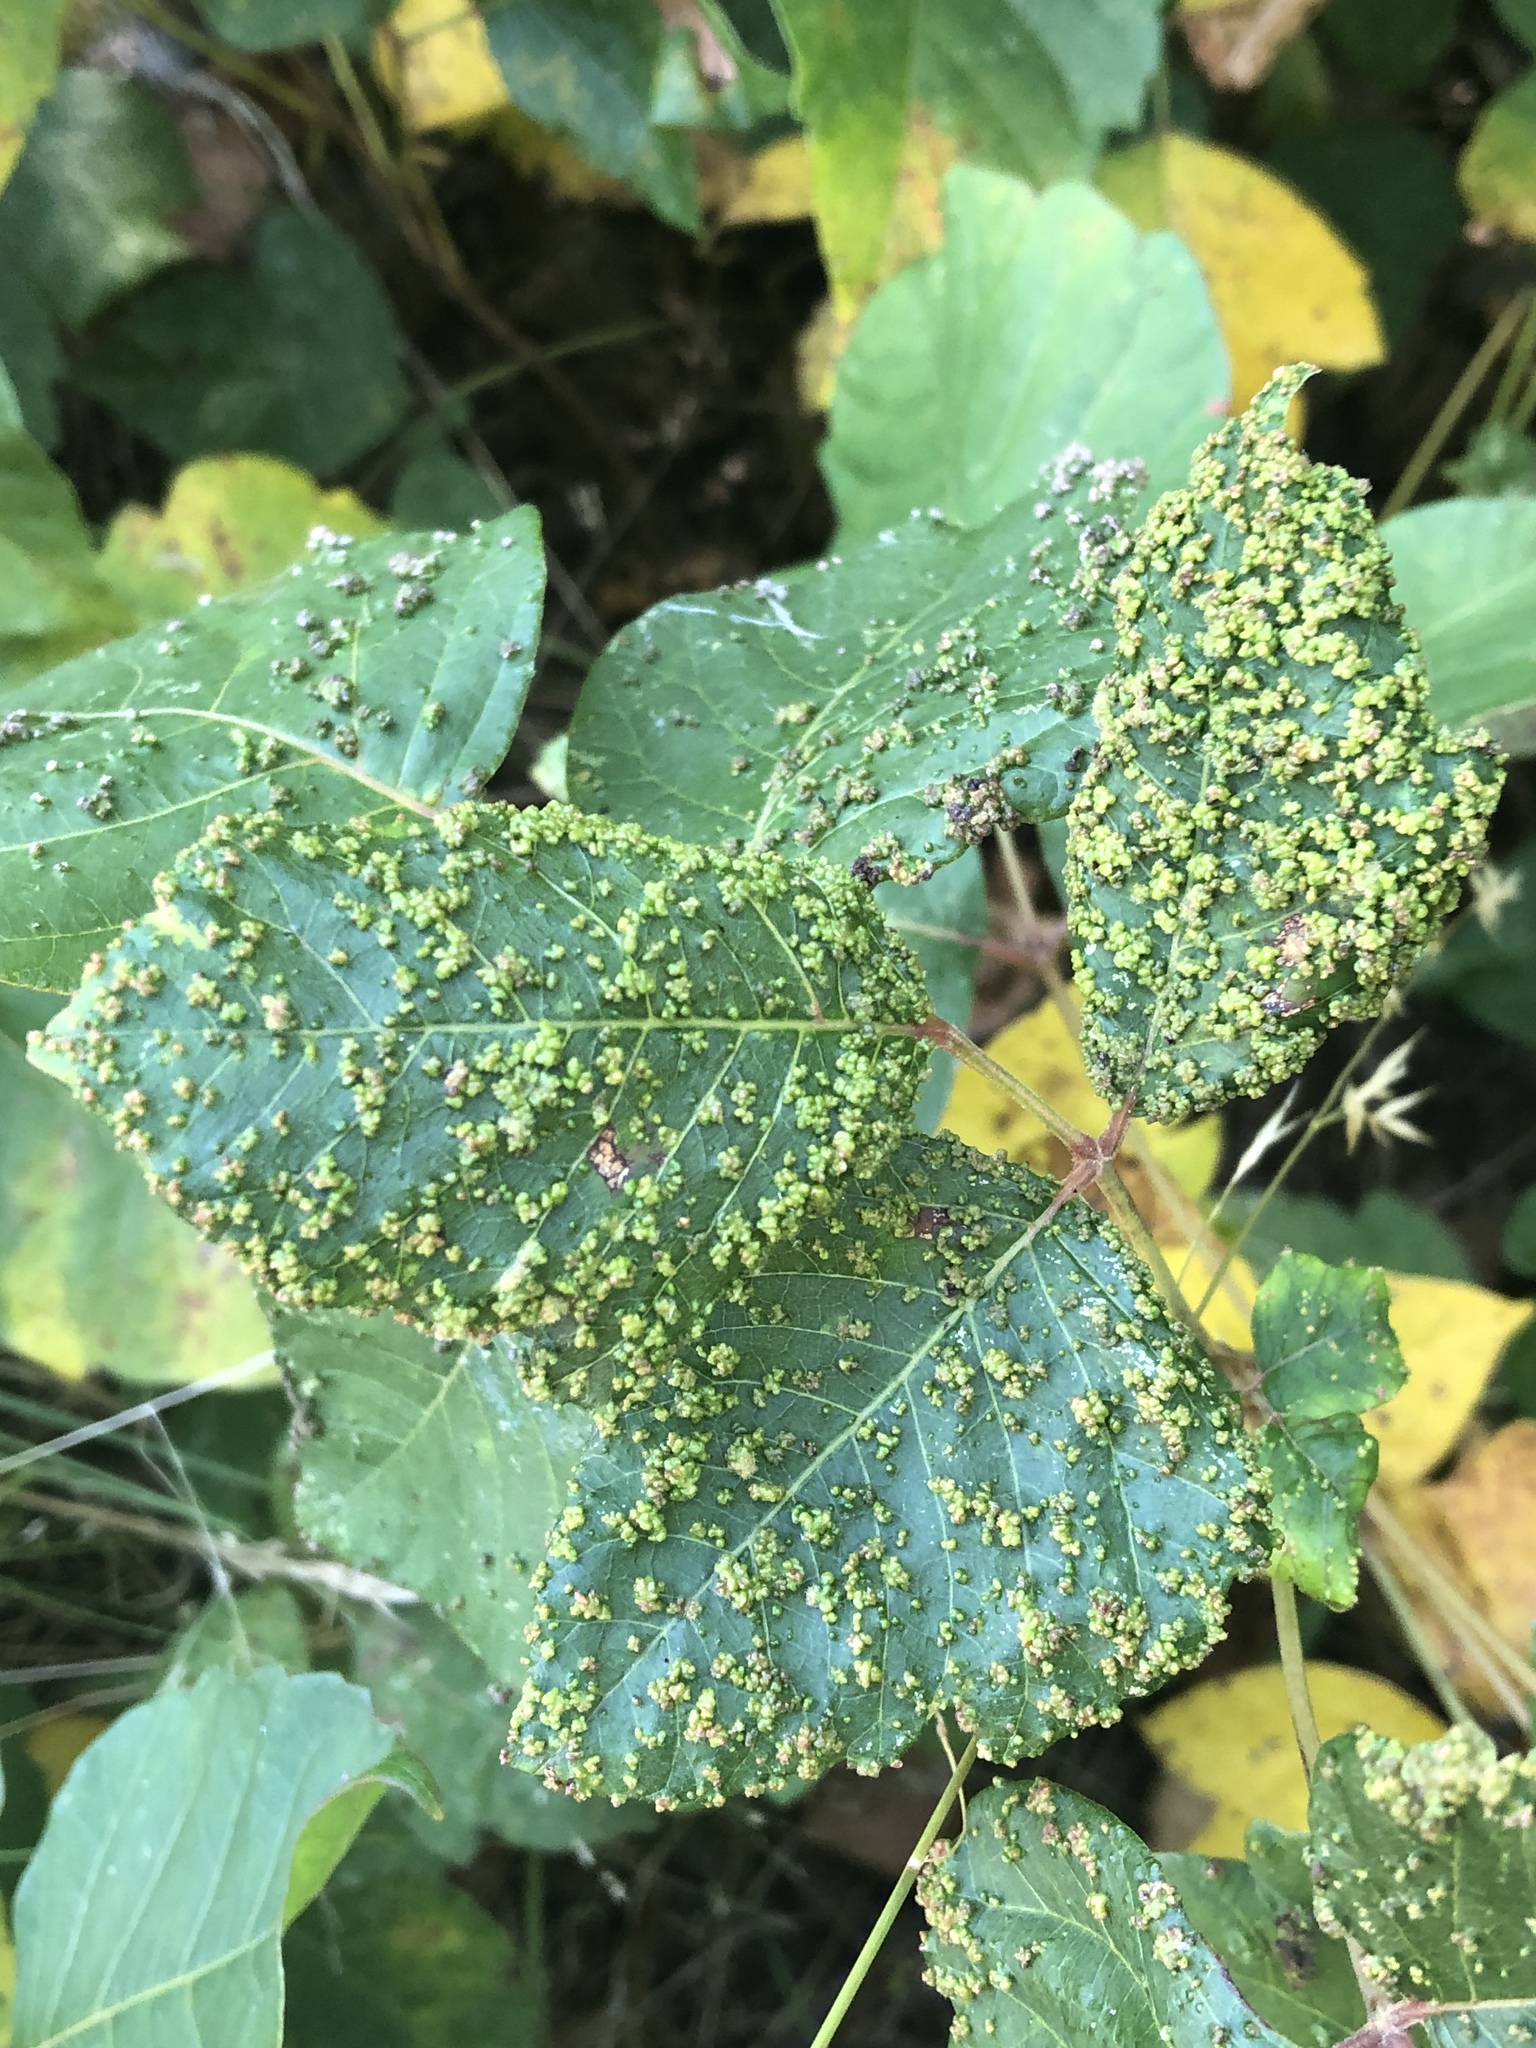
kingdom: Animalia
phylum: Arthropoda
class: Arachnida
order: Trombidiformes
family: Eriophyidae
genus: Aculops
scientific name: Aculops
